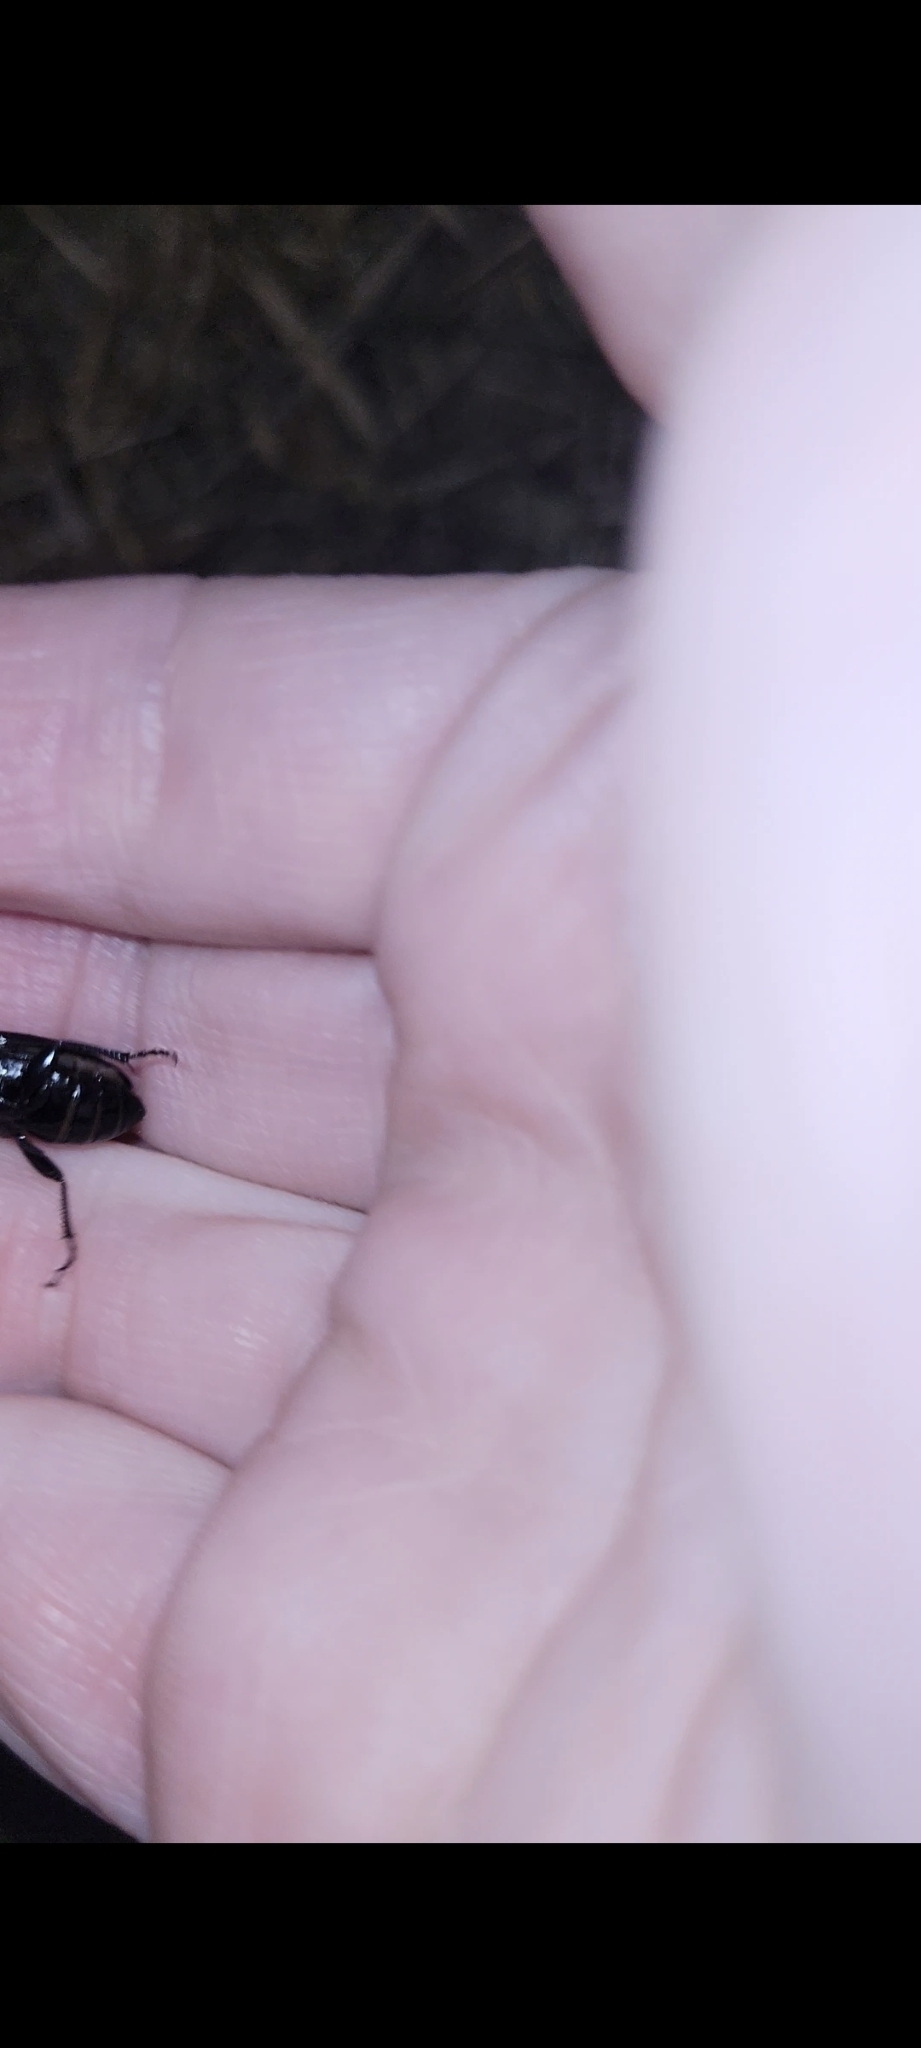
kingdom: Animalia
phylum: Arthropoda
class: Insecta
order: Coleoptera
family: Carabidae
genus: Pterostichus
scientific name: Pterostichus melanarius
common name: European dark harp ground beetle
